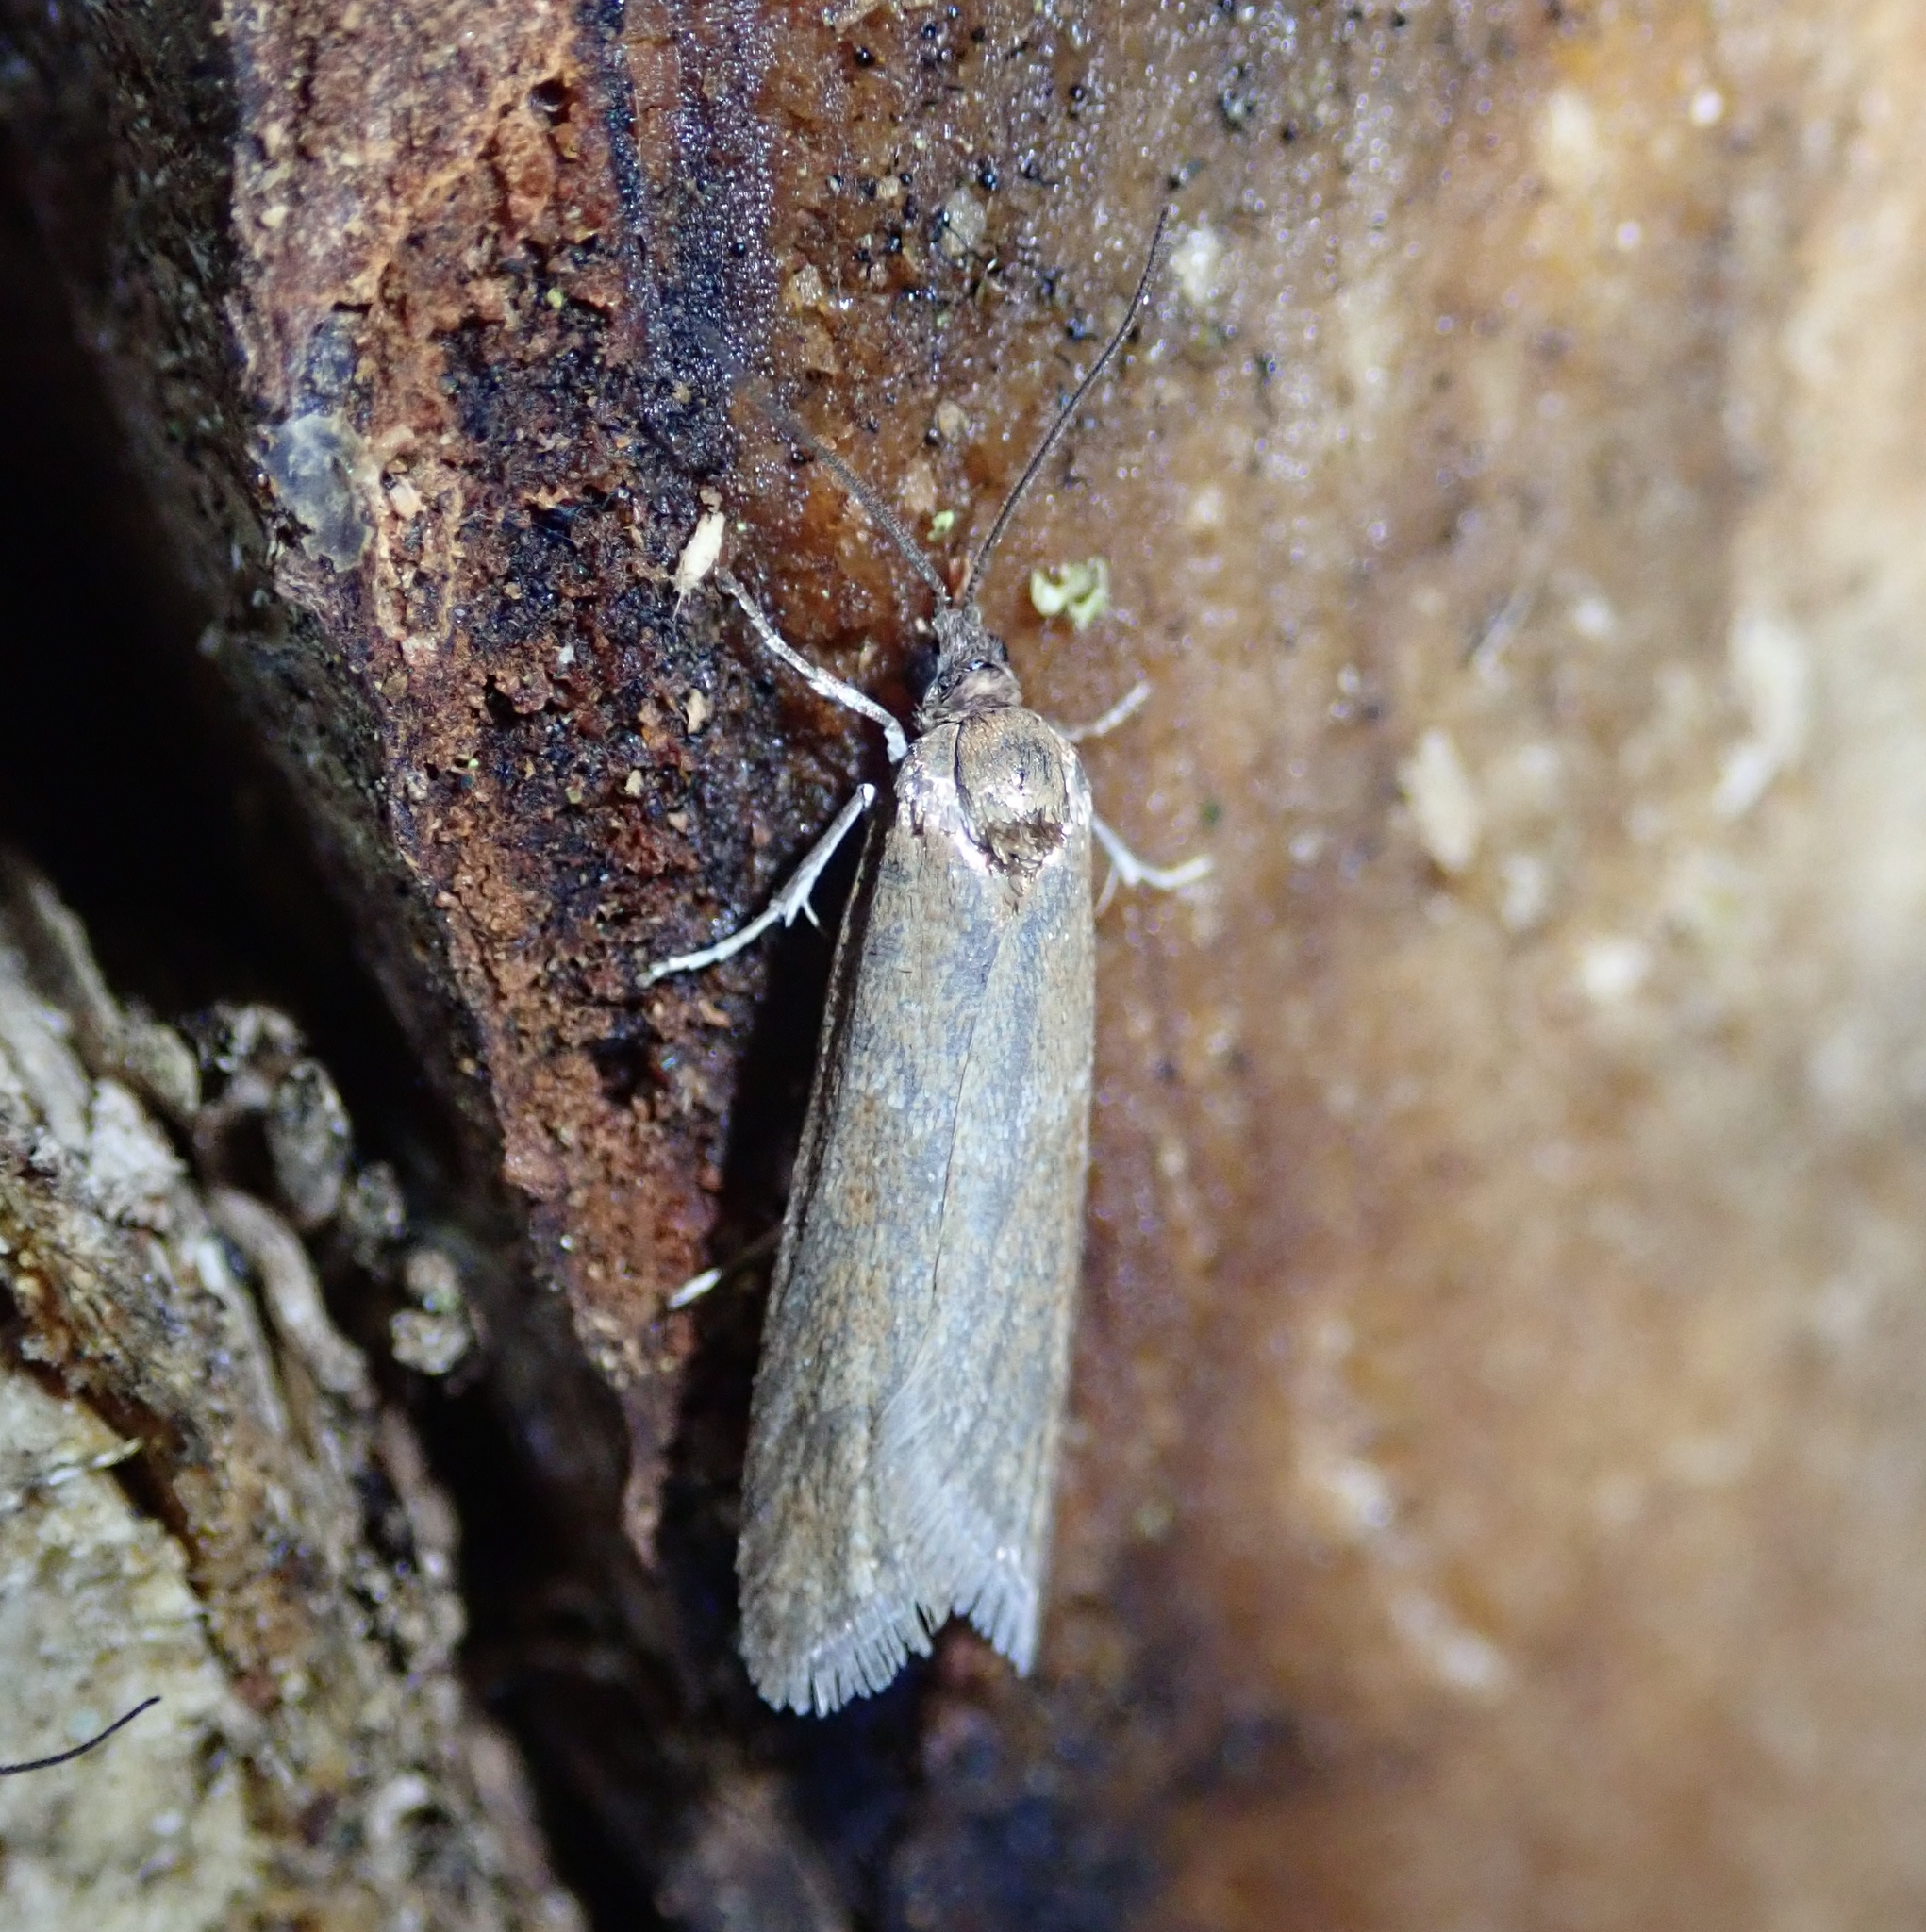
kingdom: Animalia
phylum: Arthropoda
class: Insecta
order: Lepidoptera
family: Tortricidae
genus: Tortricodes
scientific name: Tortricodes alternella
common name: Winter shade
